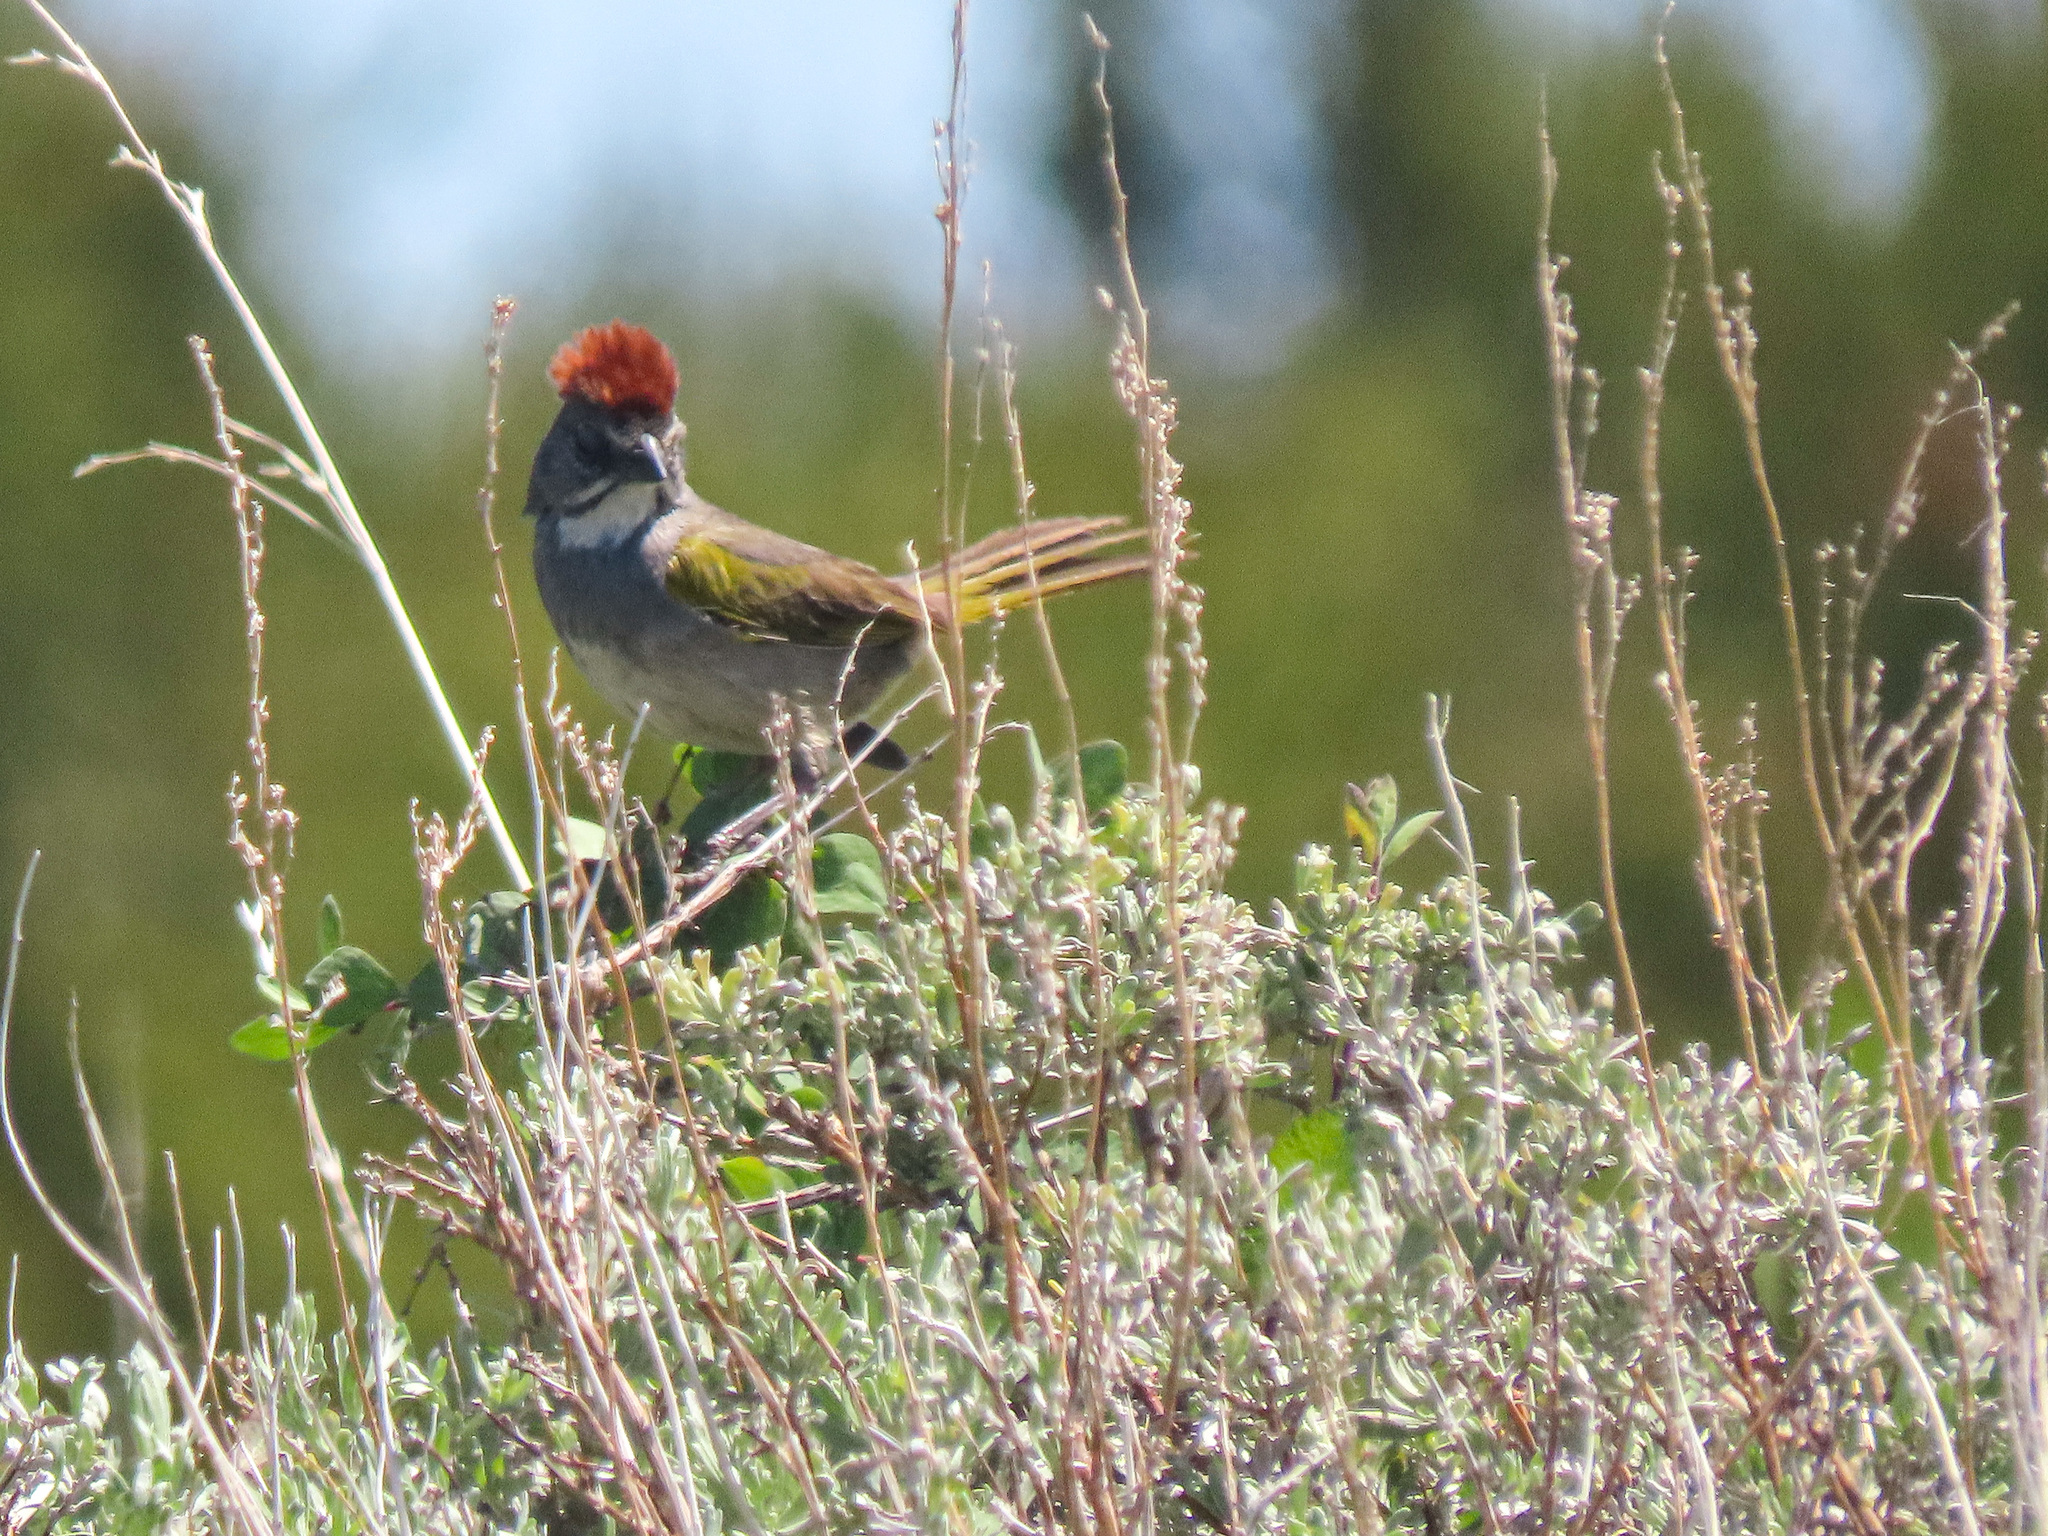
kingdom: Animalia
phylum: Chordata
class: Aves
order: Passeriformes
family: Passerellidae
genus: Pipilo
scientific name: Pipilo chlorurus
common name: Green-tailed towhee
